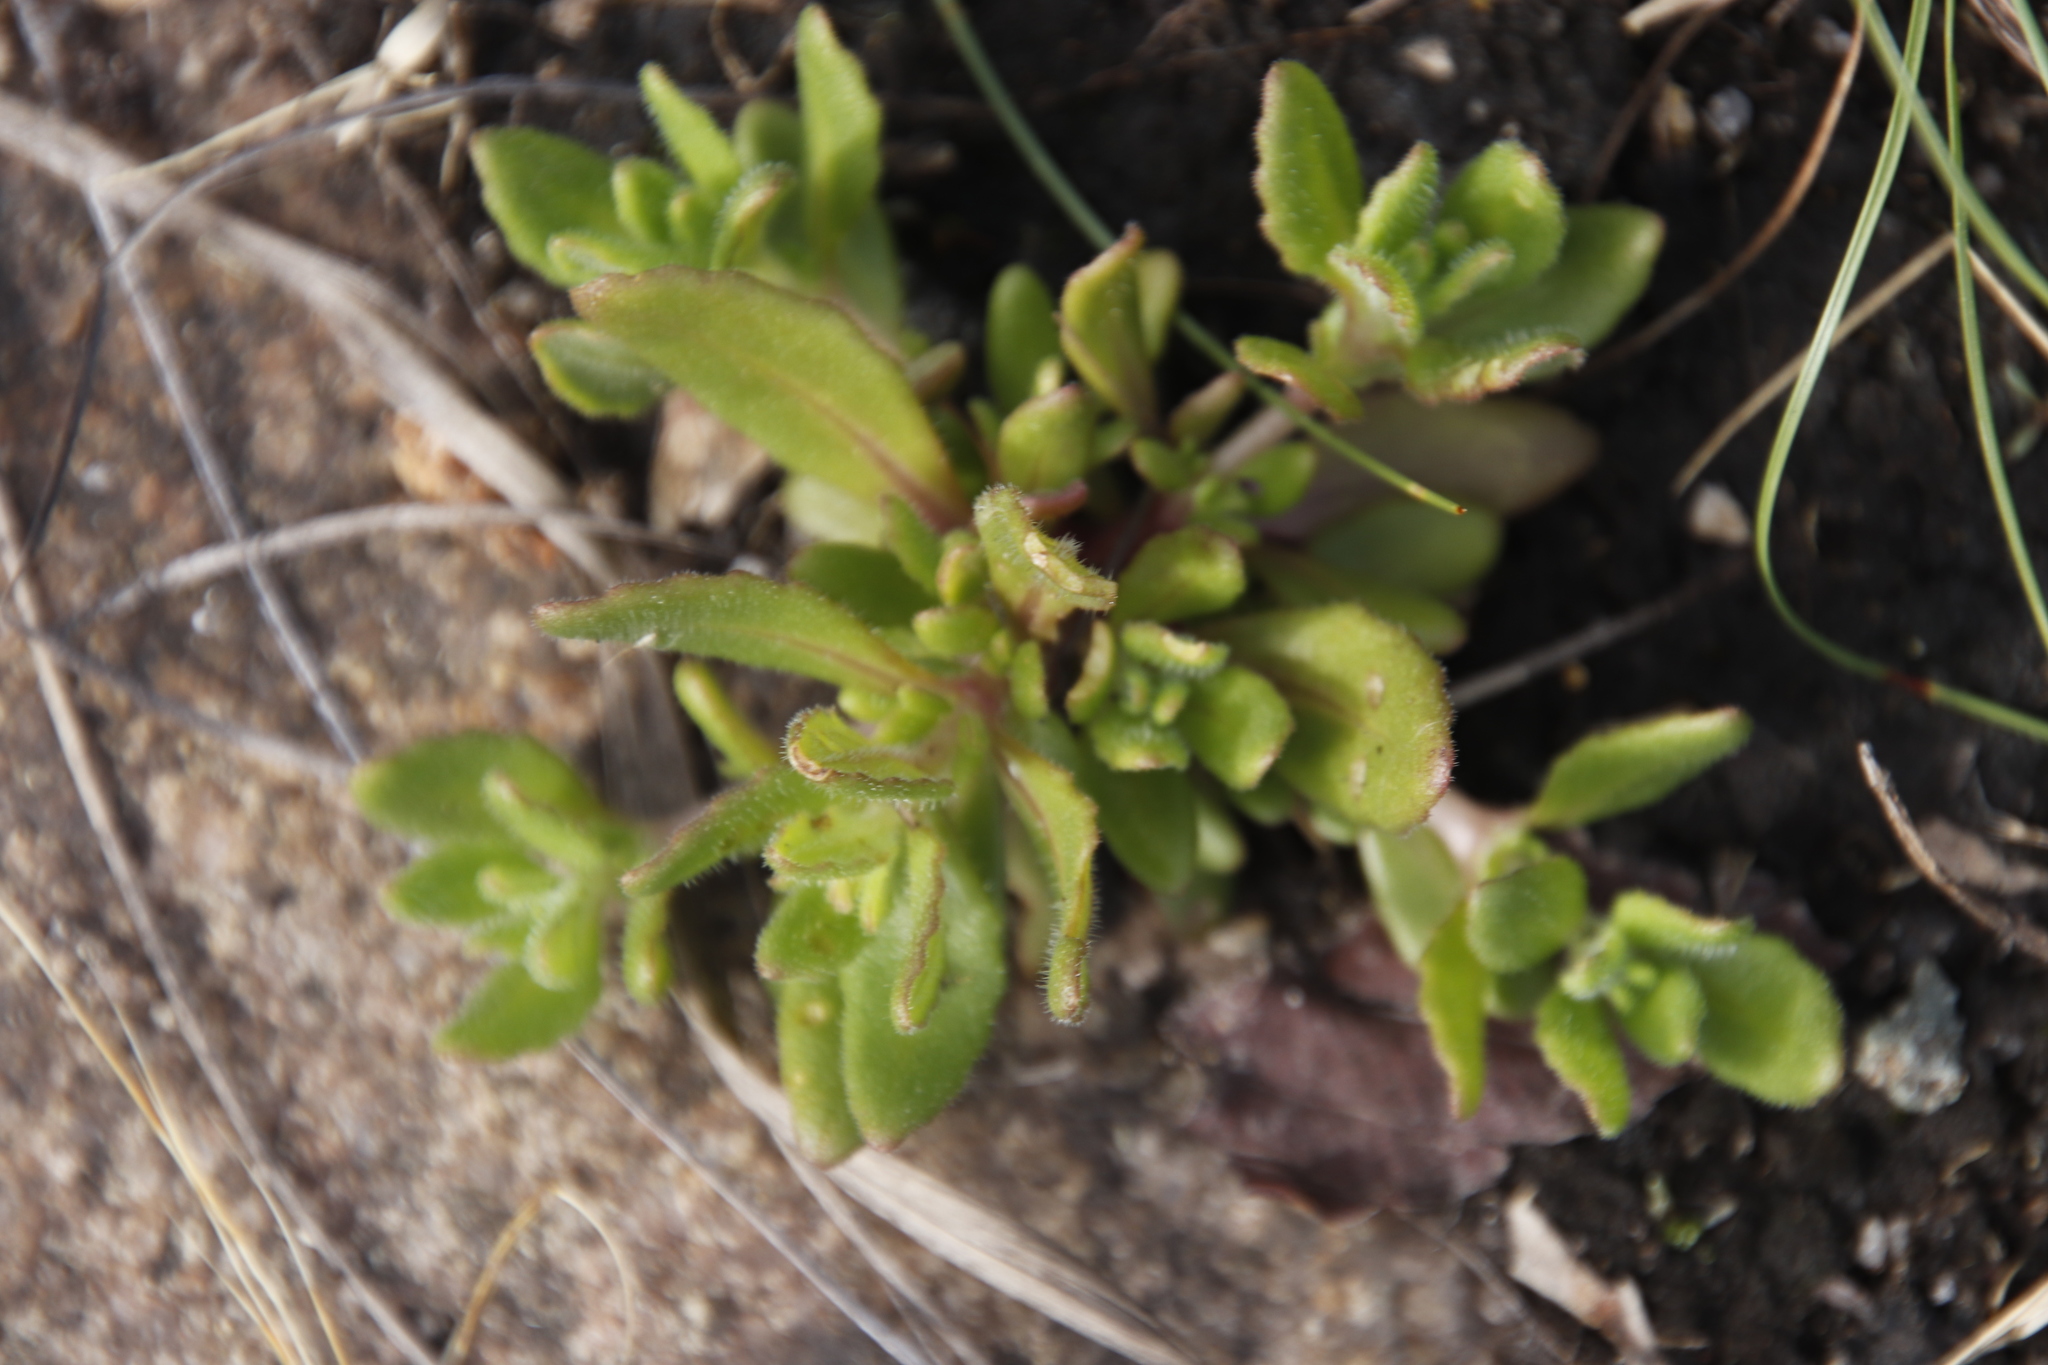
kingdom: Plantae
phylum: Tracheophyta
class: Magnoliopsida
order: Lamiales
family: Lamiaceae
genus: Aeollanthus
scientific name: Aeollanthus serpiculoides
